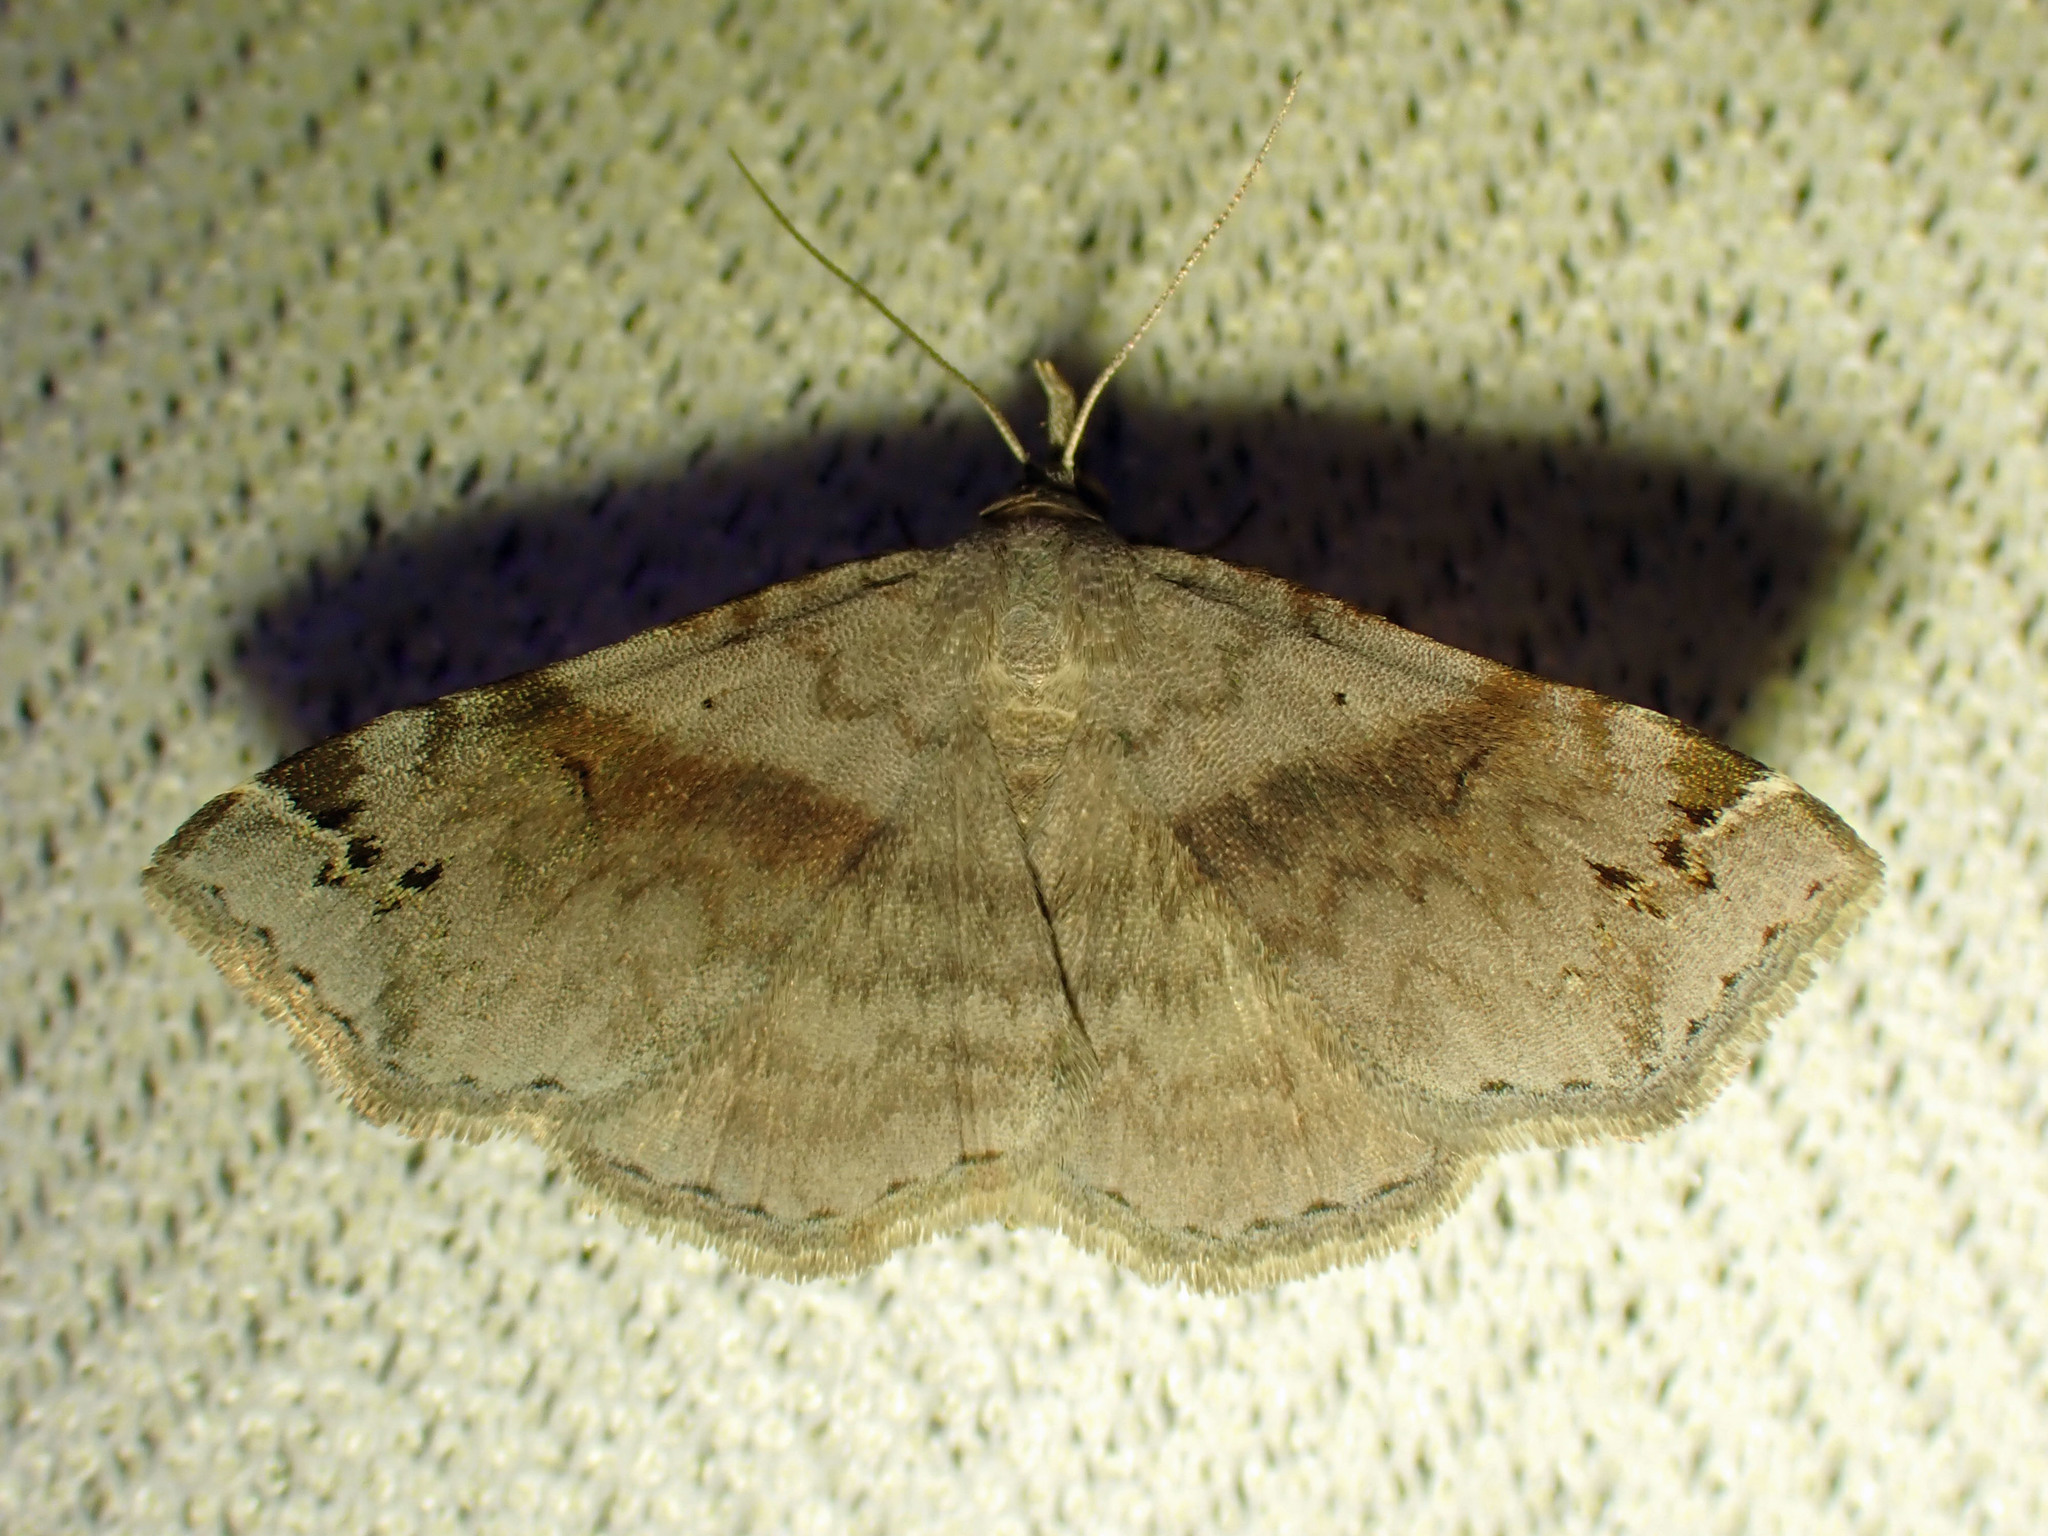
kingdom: Animalia
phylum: Arthropoda
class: Insecta
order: Lepidoptera
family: Erebidae
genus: Spargaloma
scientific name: Spargaloma sexpunctata
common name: Six-spotted gray
